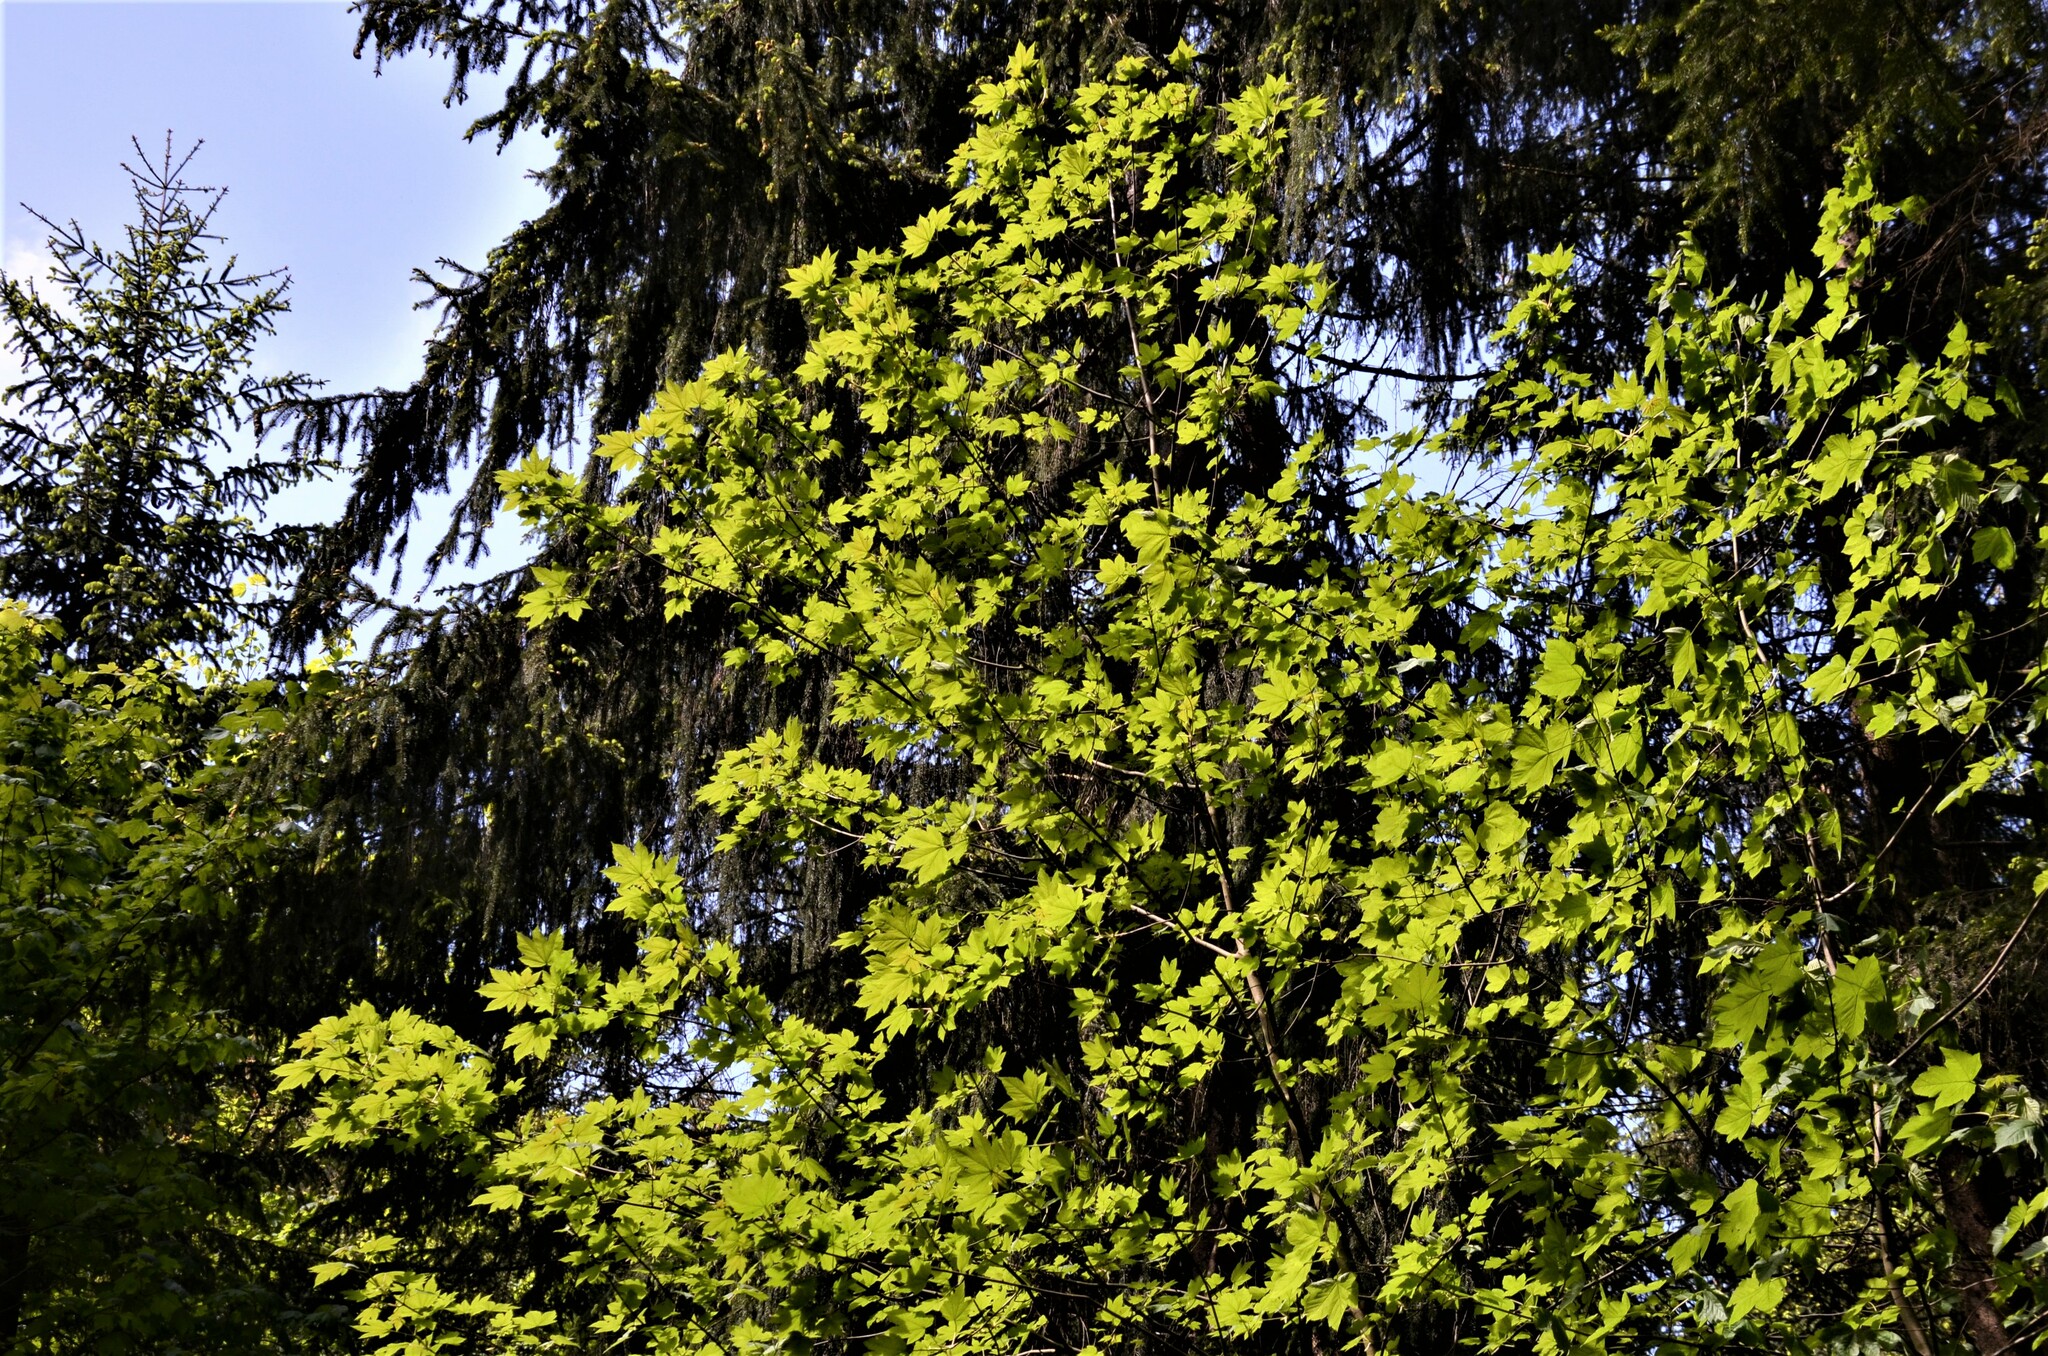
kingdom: Plantae
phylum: Tracheophyta
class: Magnoliopsida
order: Sapindales
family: Sapindaceae
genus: Acer
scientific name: Acer pseudoplatanus
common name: Sycamore
